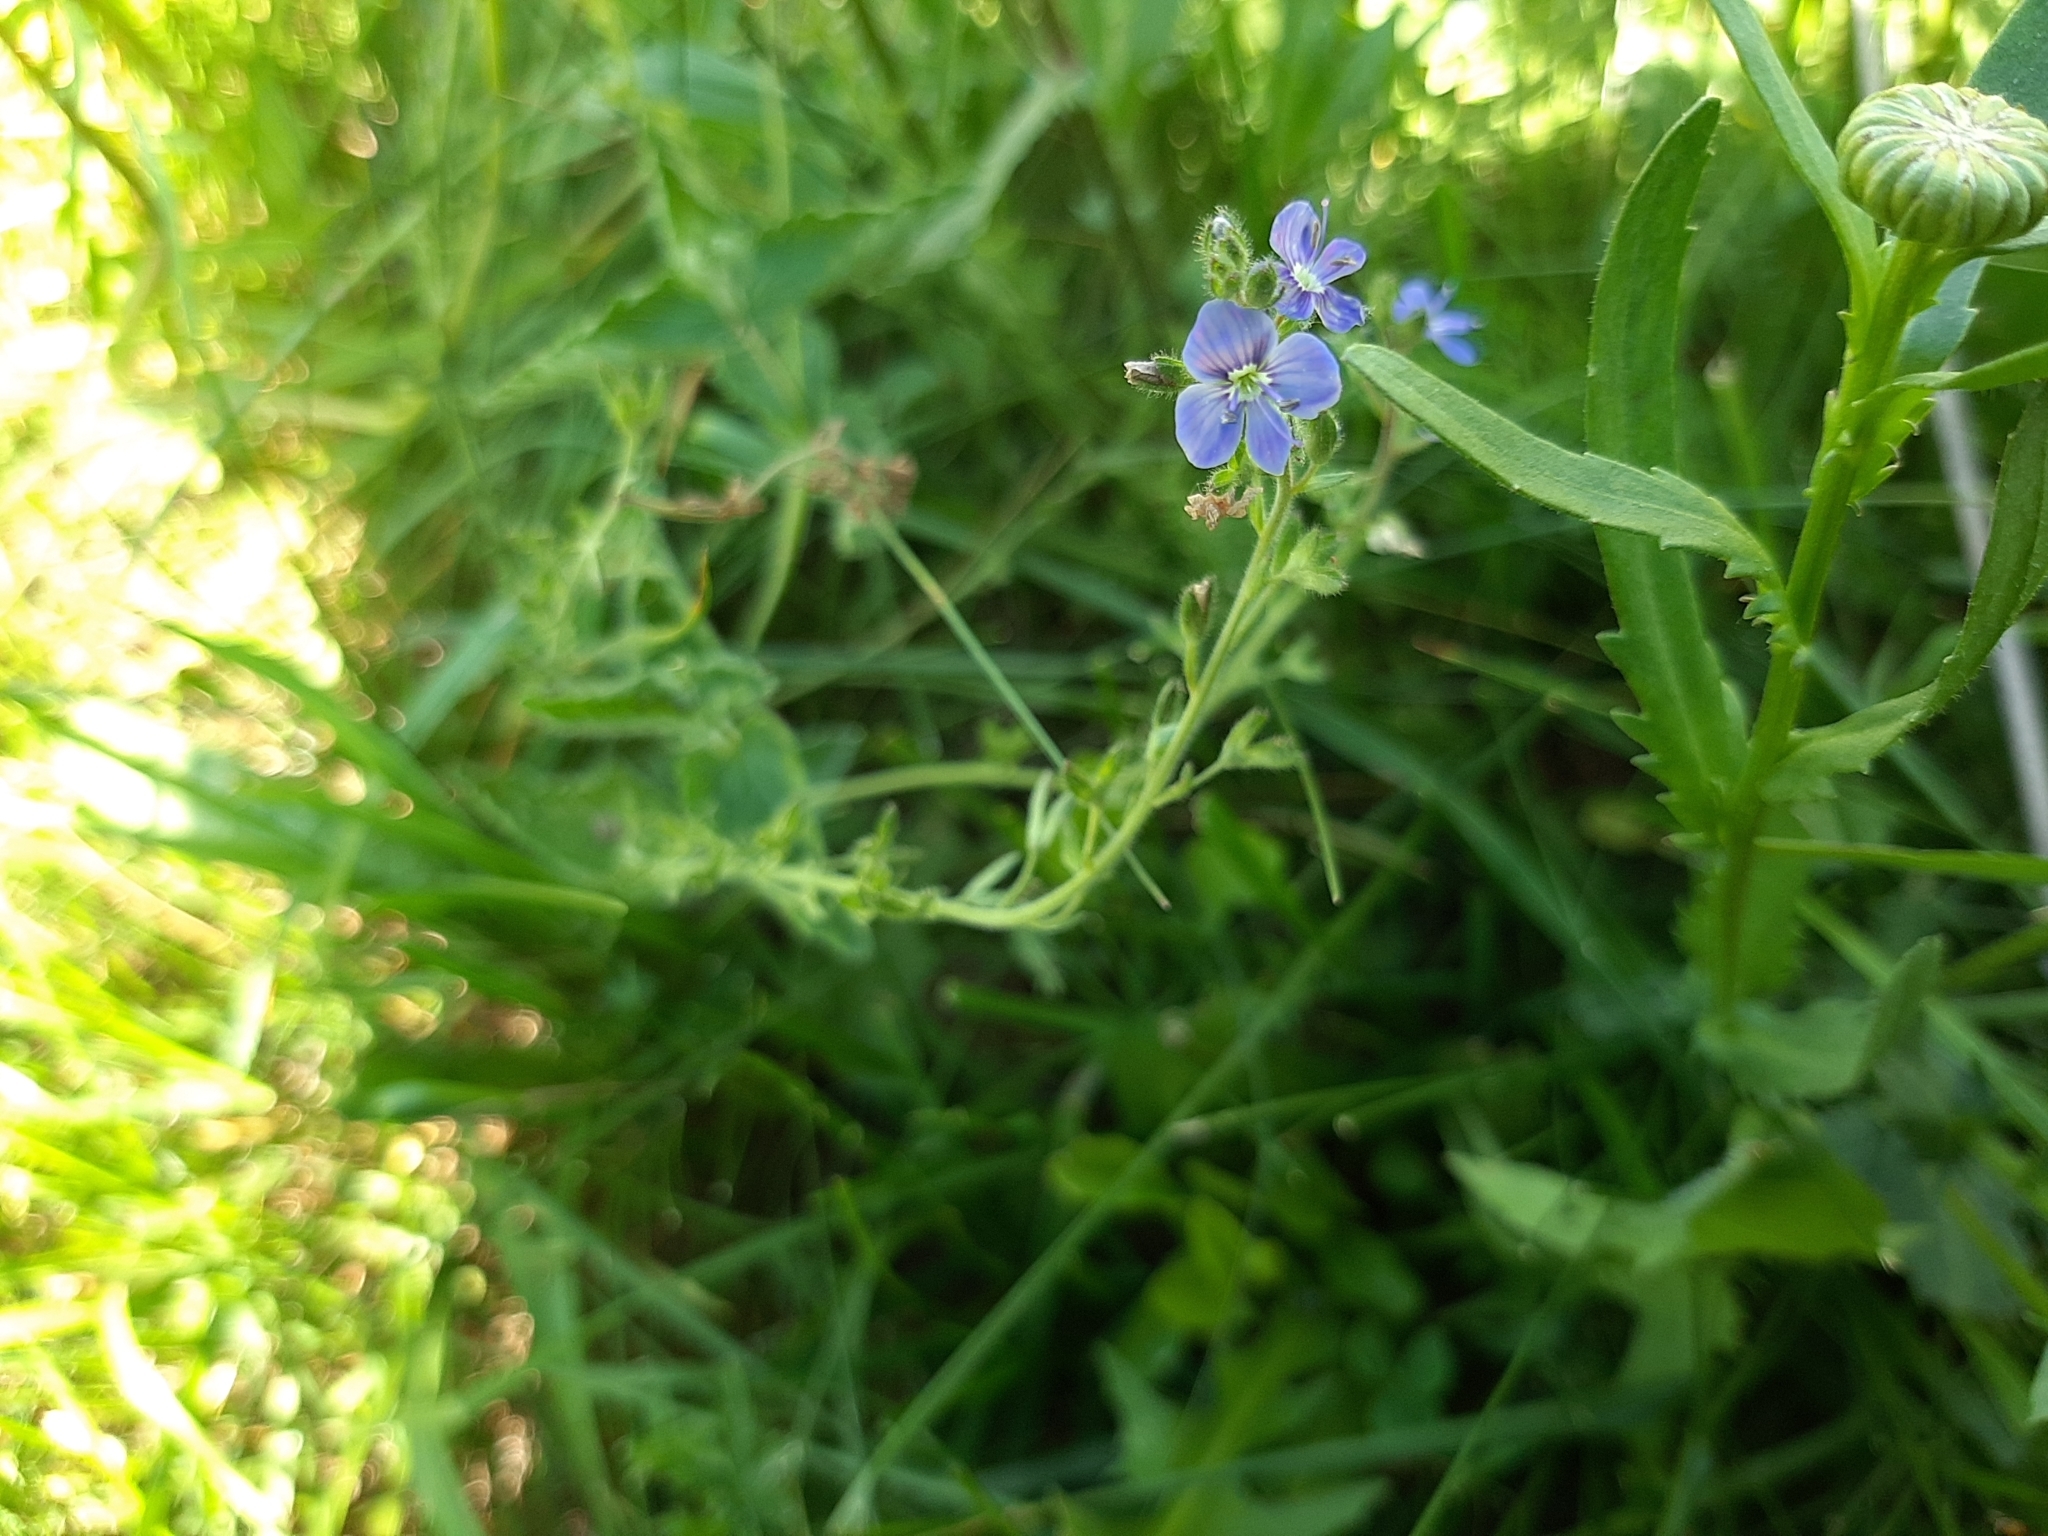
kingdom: Plantae
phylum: Tracheophyta
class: Magnoliopsida
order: Lamiales
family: Plantaginaceae
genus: Veronica
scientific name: Veronica chamaedrys
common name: Germander speedwell
